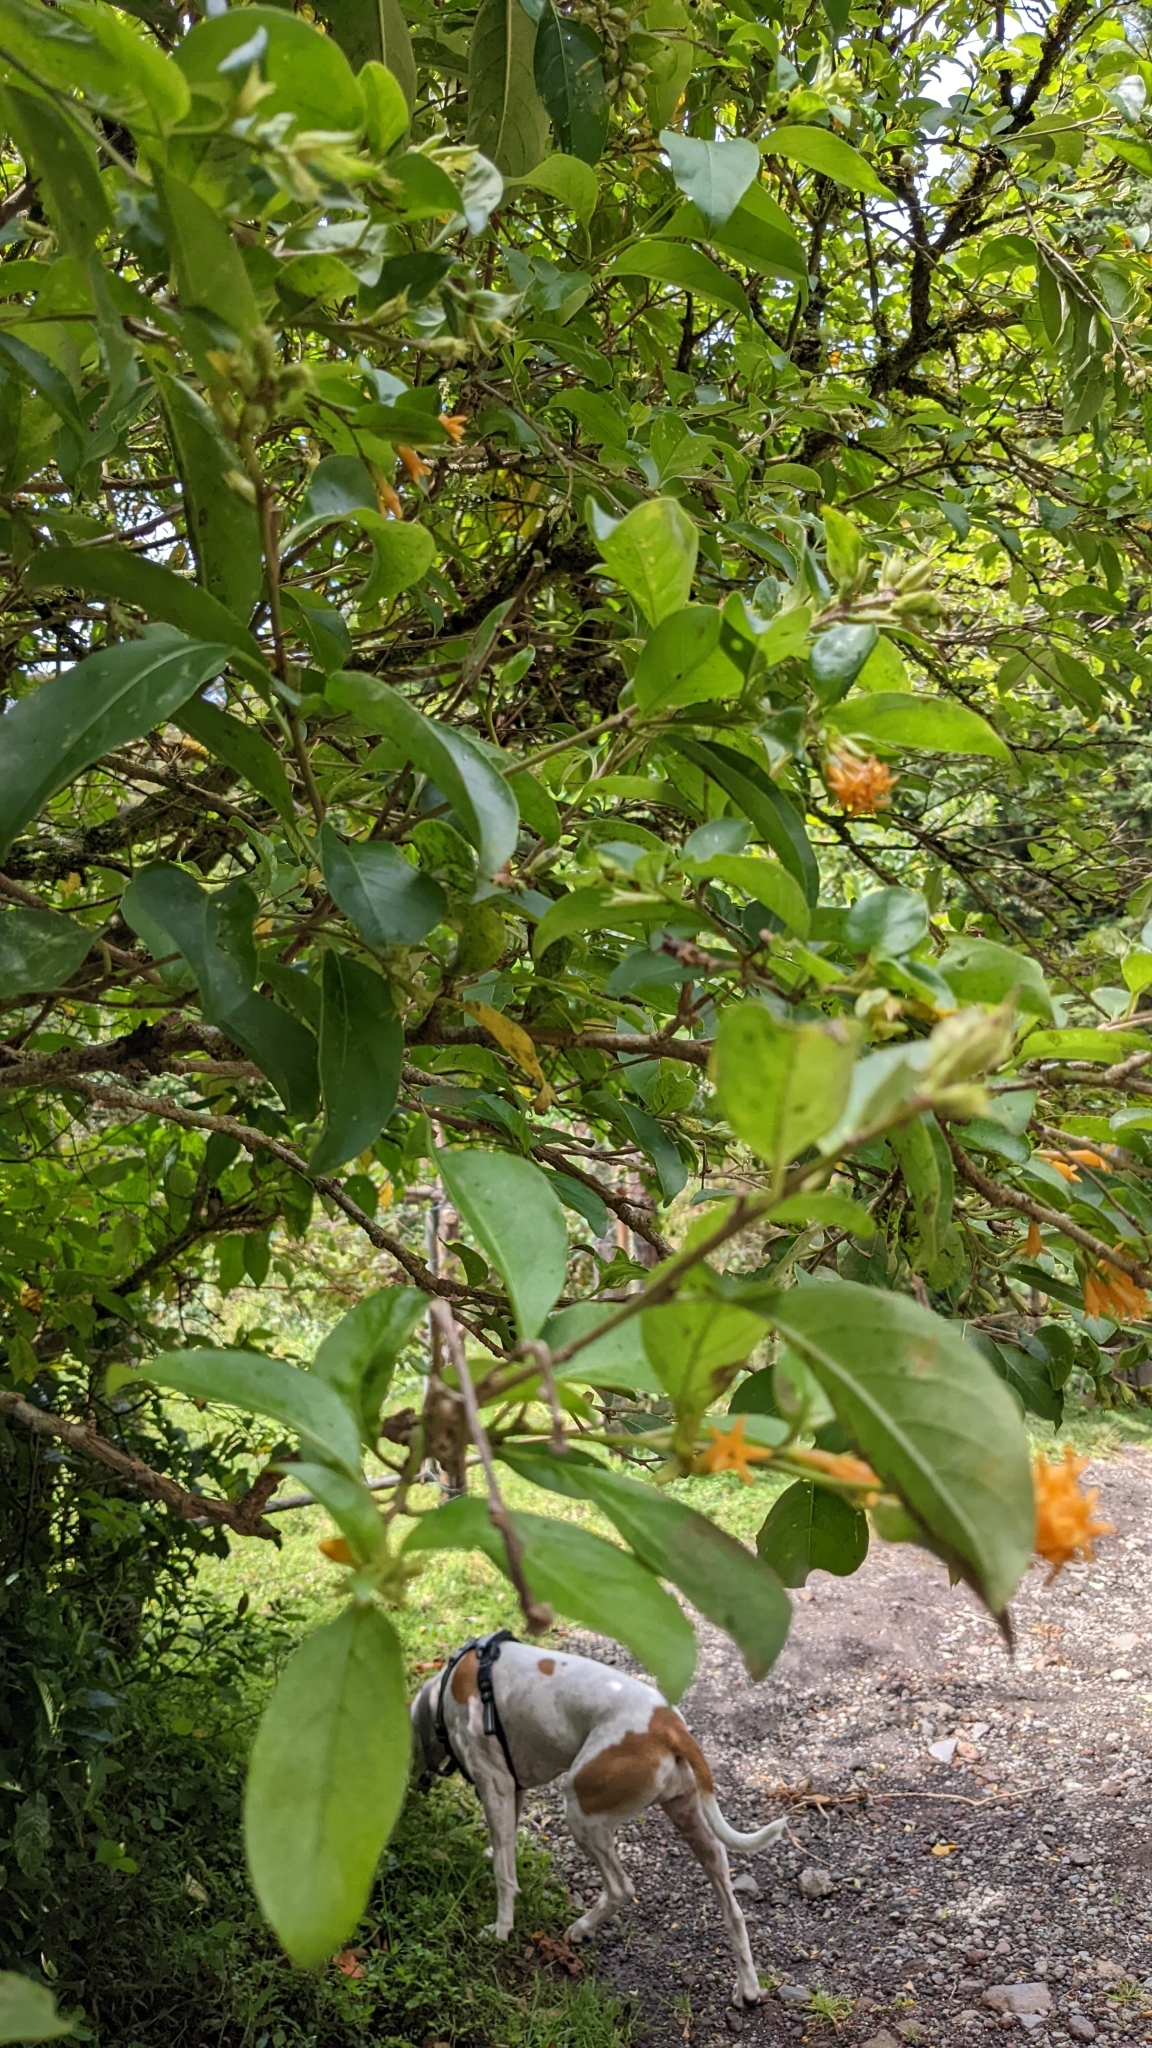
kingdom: Plantae
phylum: Tracheophyta
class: Magnoliopsida
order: Solanales
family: Solanaceae
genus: Cestrum
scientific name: Cestrum aurantiacum
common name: Orange cestrum
